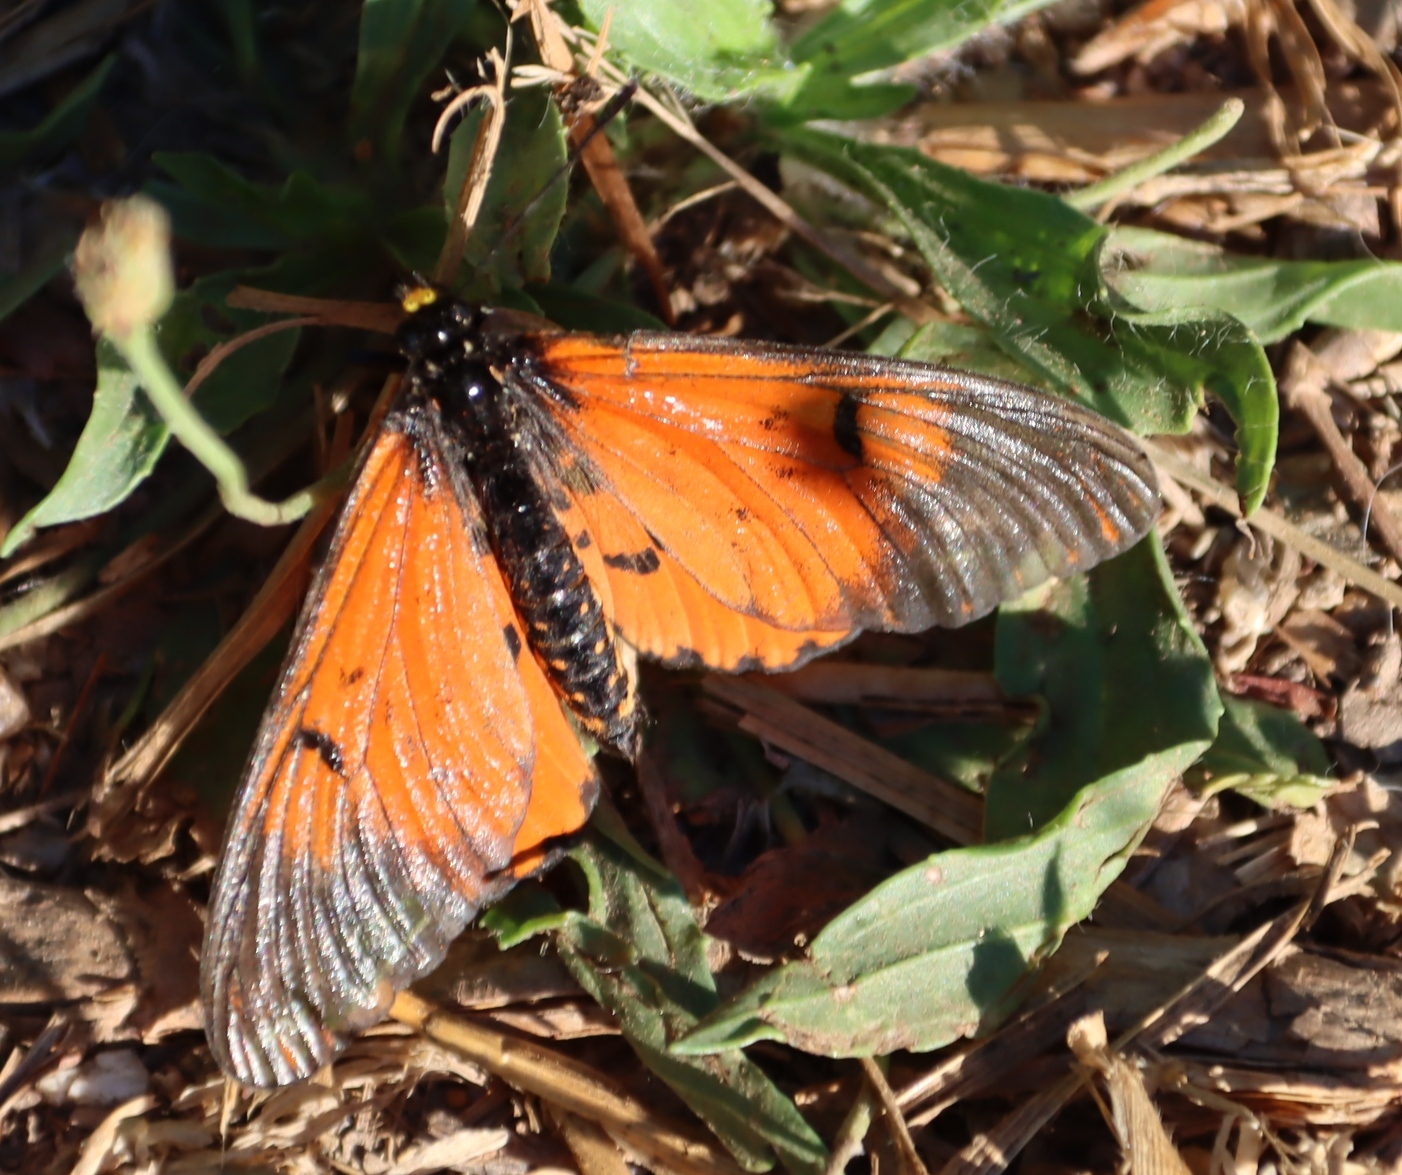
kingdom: Animalia
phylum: Arthropoda
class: Insecta
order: Lepidoptera
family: Nymphalidae
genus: Acraea
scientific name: Acraea horta
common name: Garden acraea
